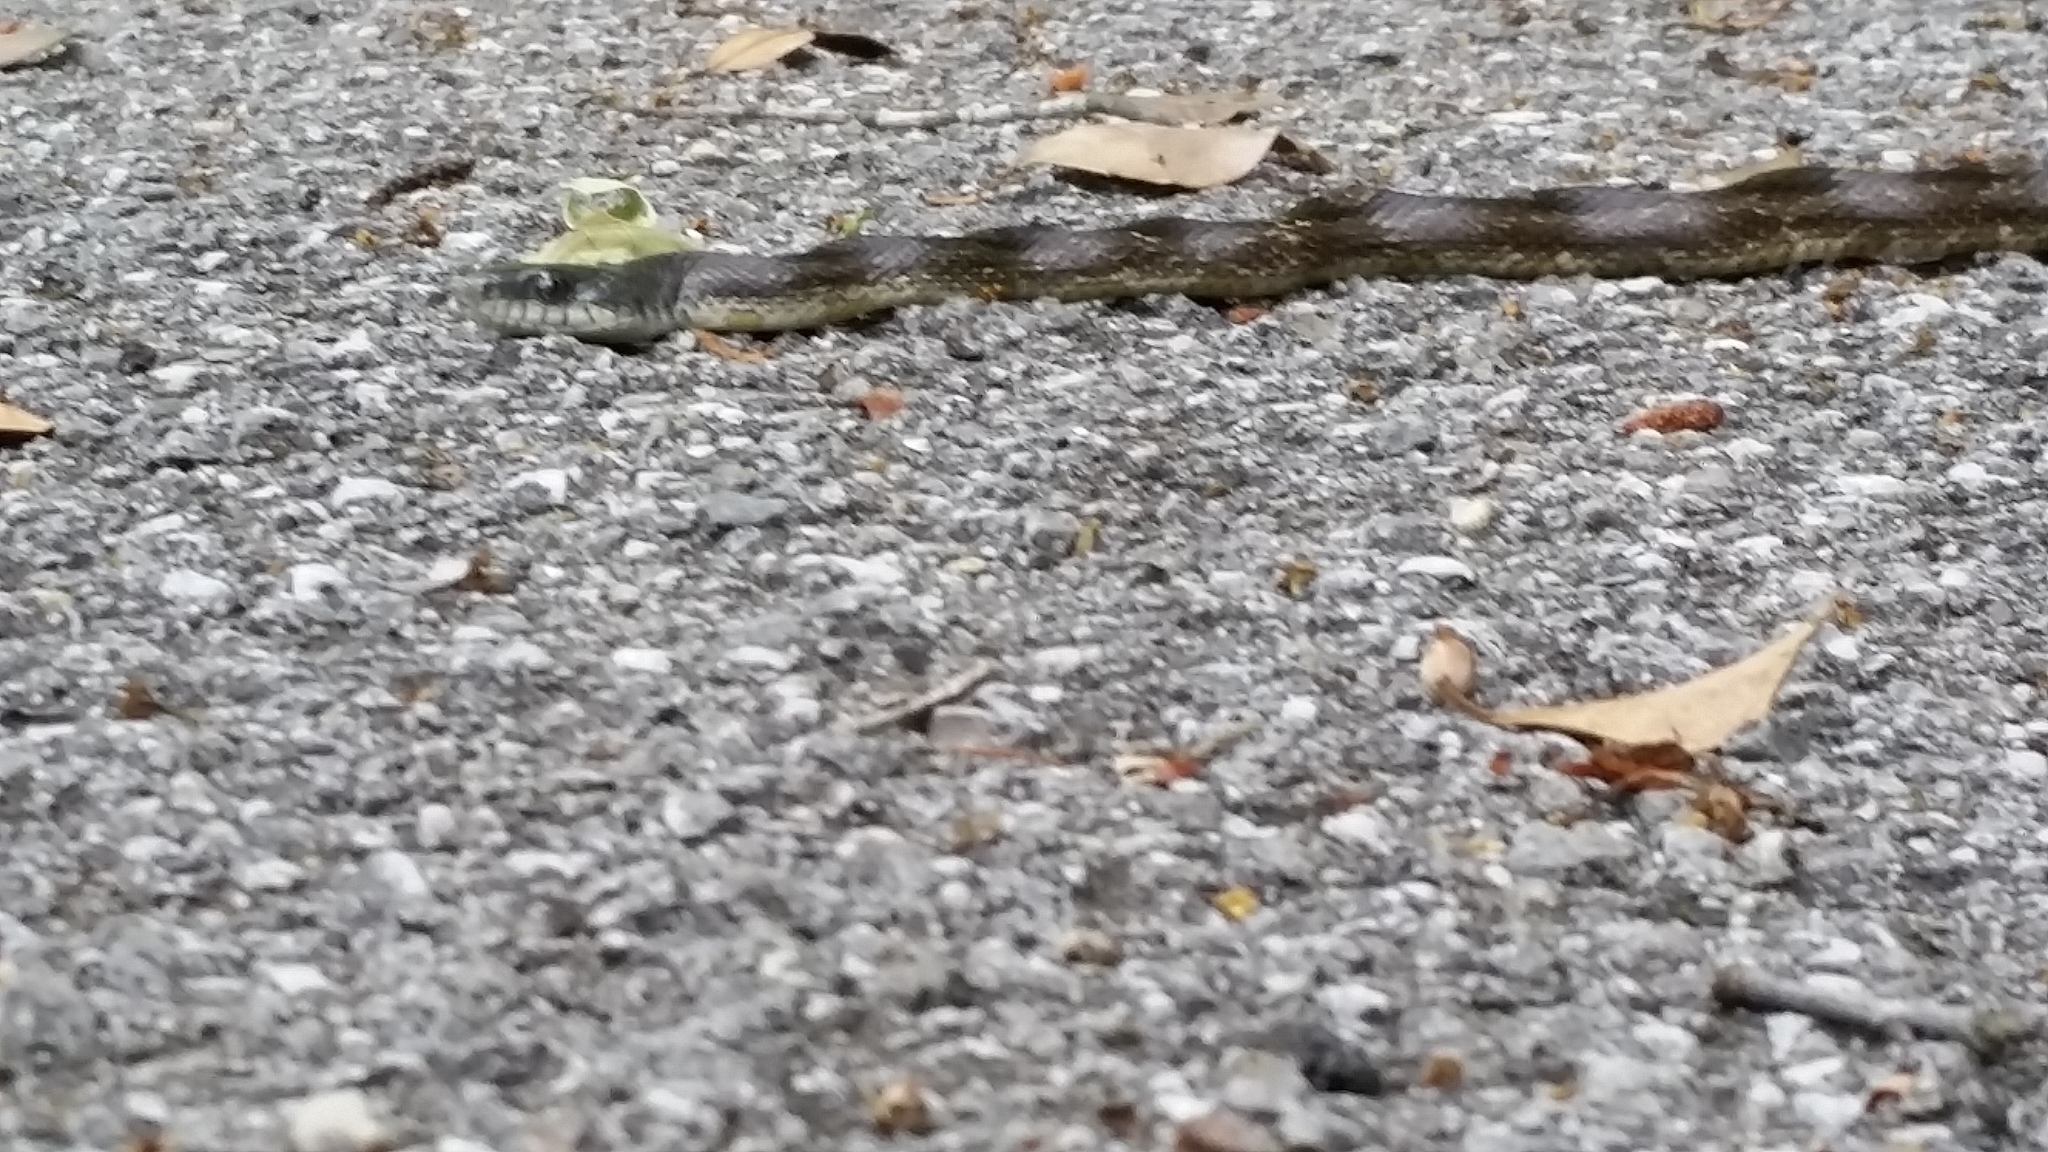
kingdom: Animalia
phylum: Chordata
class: Squamata
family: Colubridae
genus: Pantherophis
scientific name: Pantherophis spiloides
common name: Gray rat snake
